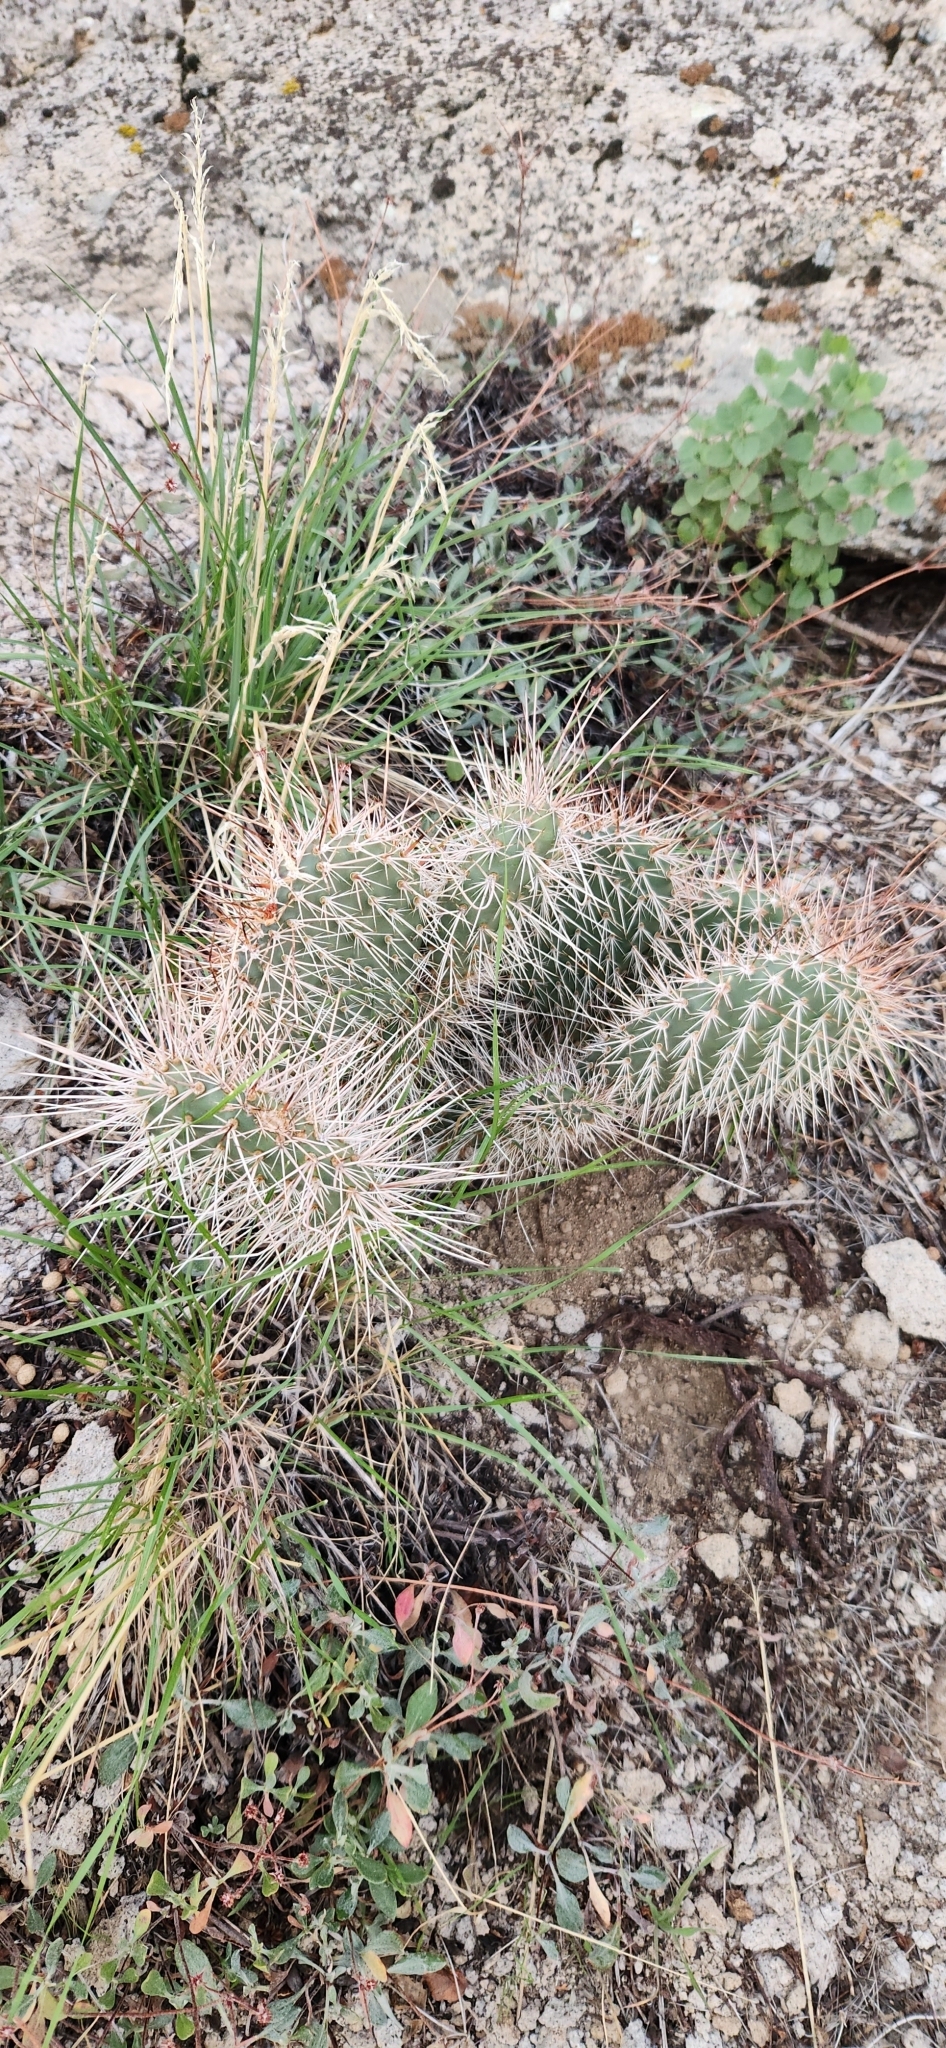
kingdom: Plantae
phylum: Tracheophyta
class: Magnoliopsida
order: Caryophyllales
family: Cactaceae
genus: Opuntia
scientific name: Opuntia polyacantha
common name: Plains prickly-pear
